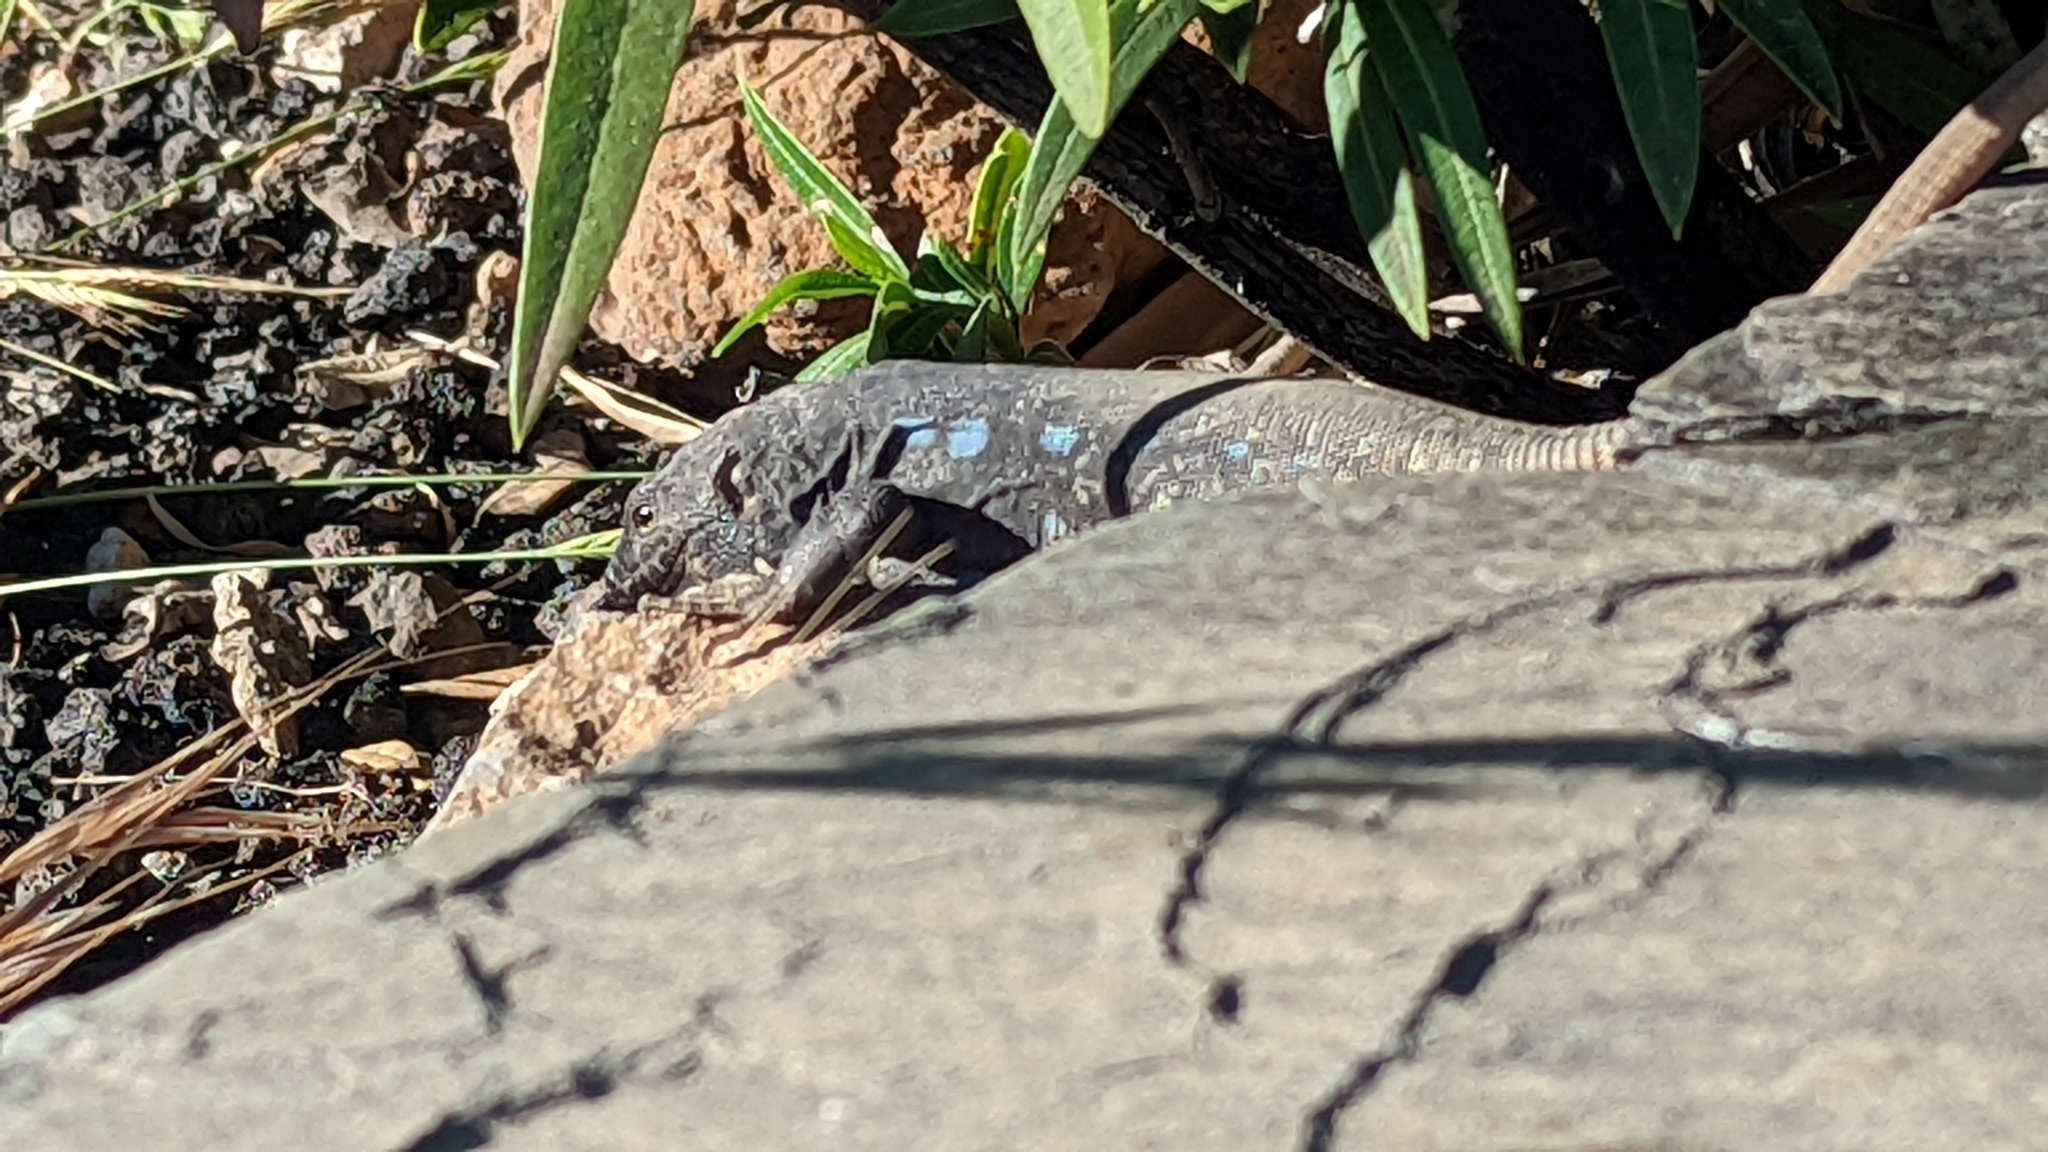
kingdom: Animalia
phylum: Chordata
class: Squamata
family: Lacertidae
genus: Gallotia
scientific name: Gallotia galloti
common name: Gallot's lizard
